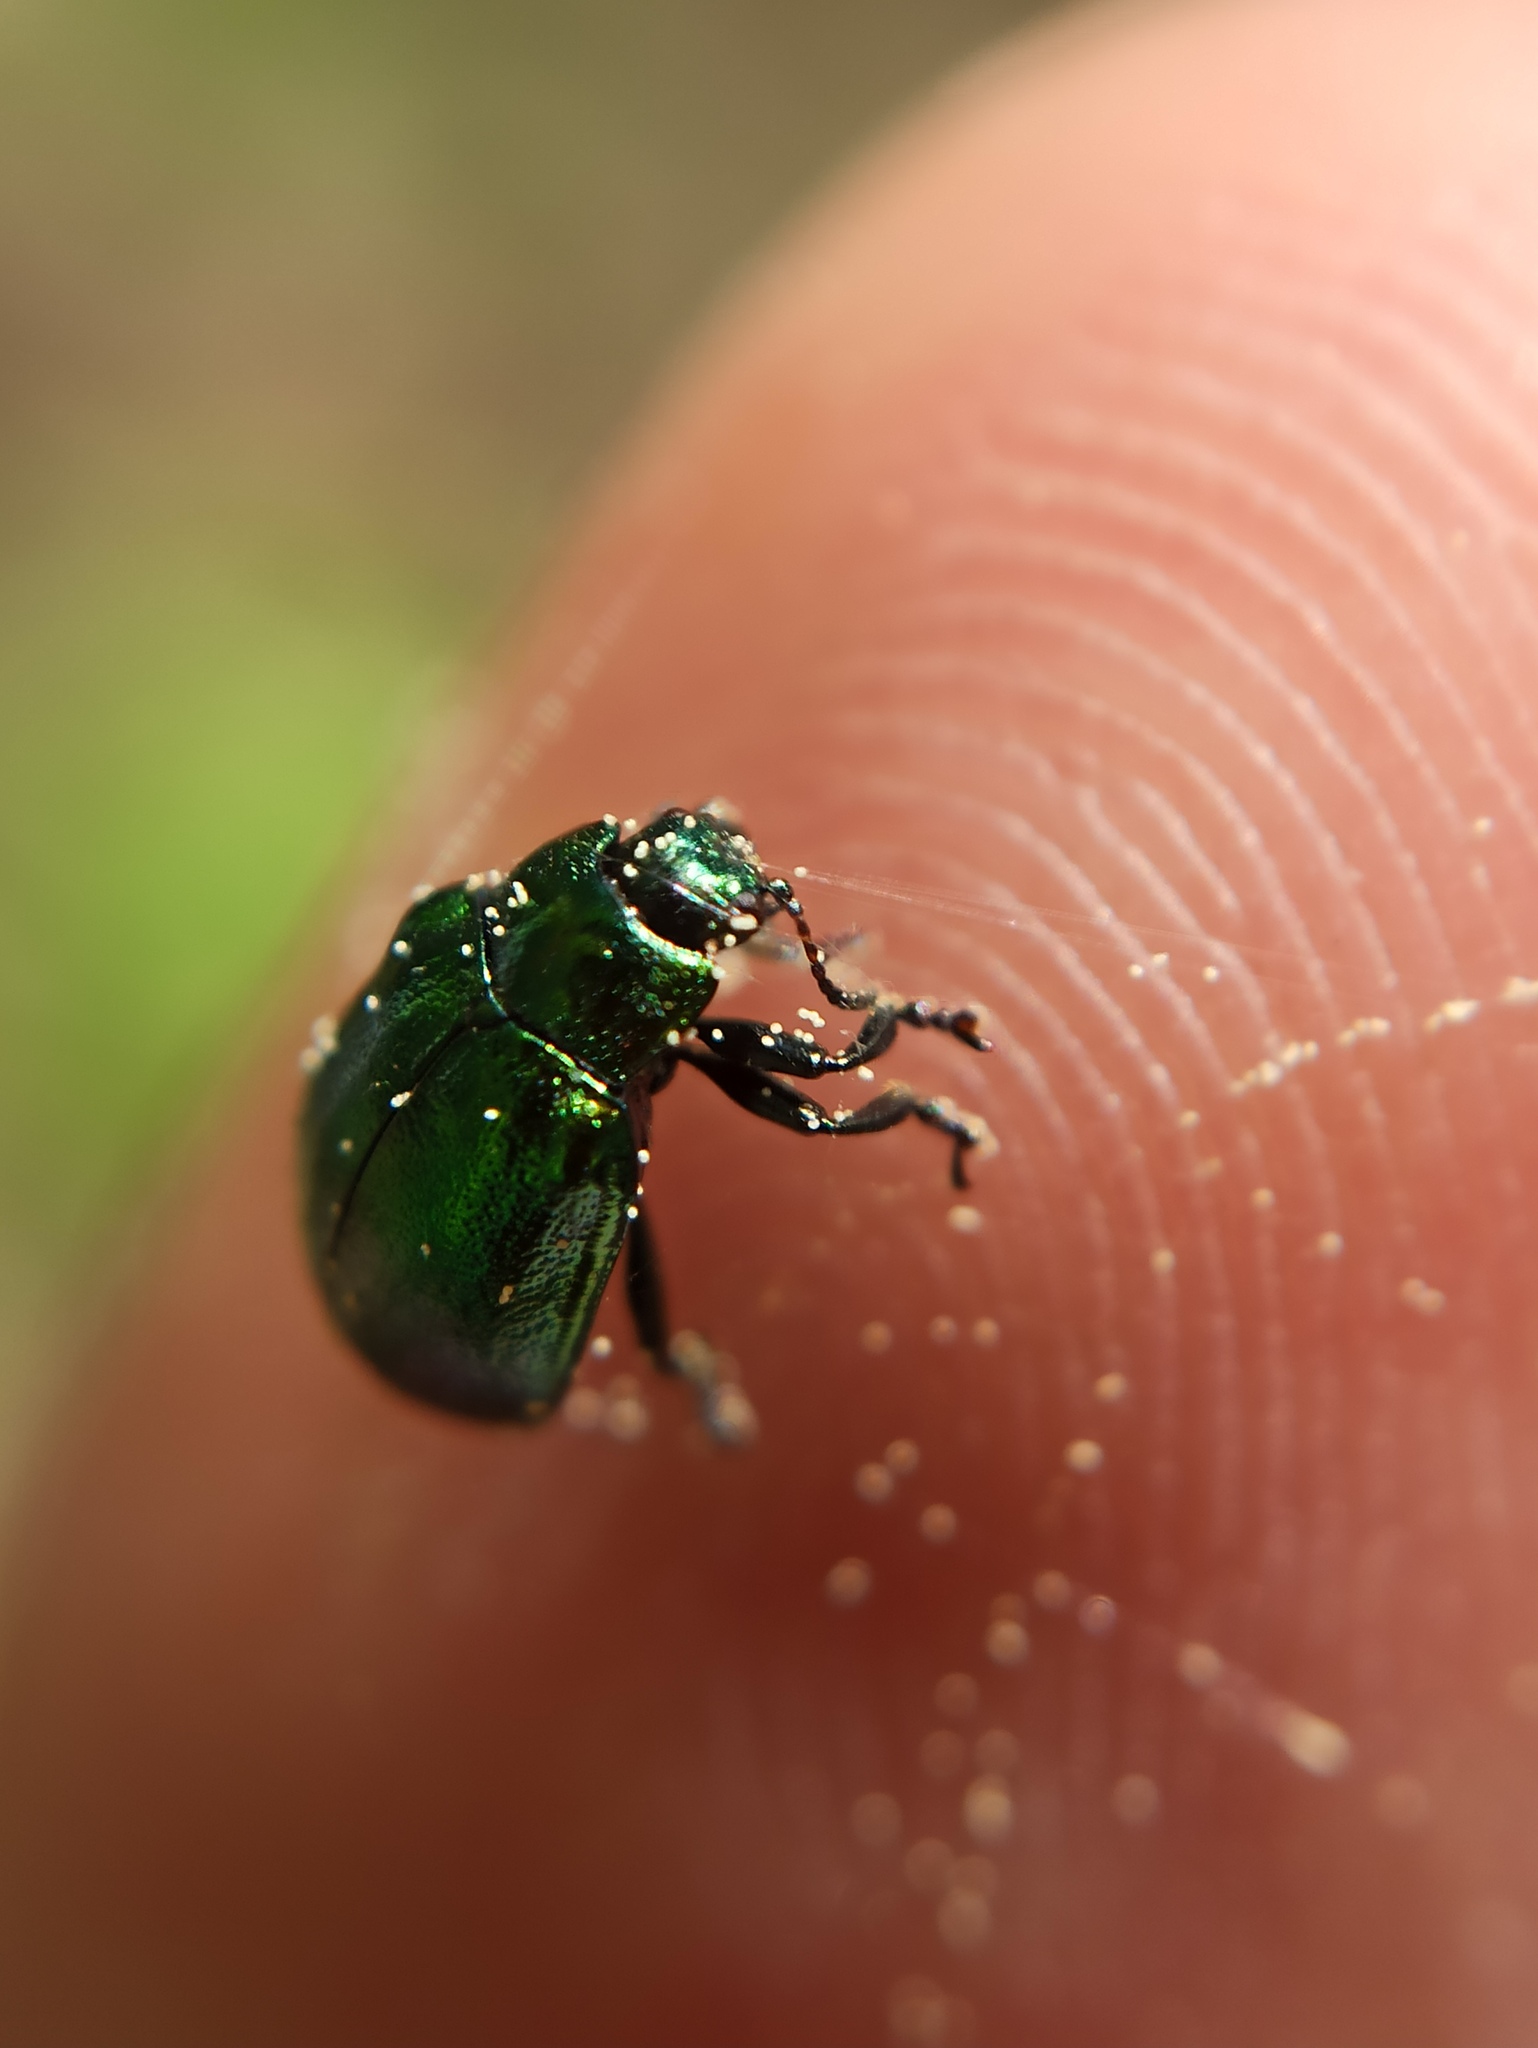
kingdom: Animalia
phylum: Arthropoda
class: Insecta
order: Coleoptera
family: Chrysomelidae
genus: Plagiosterna
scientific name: Plagiosterna aenea
